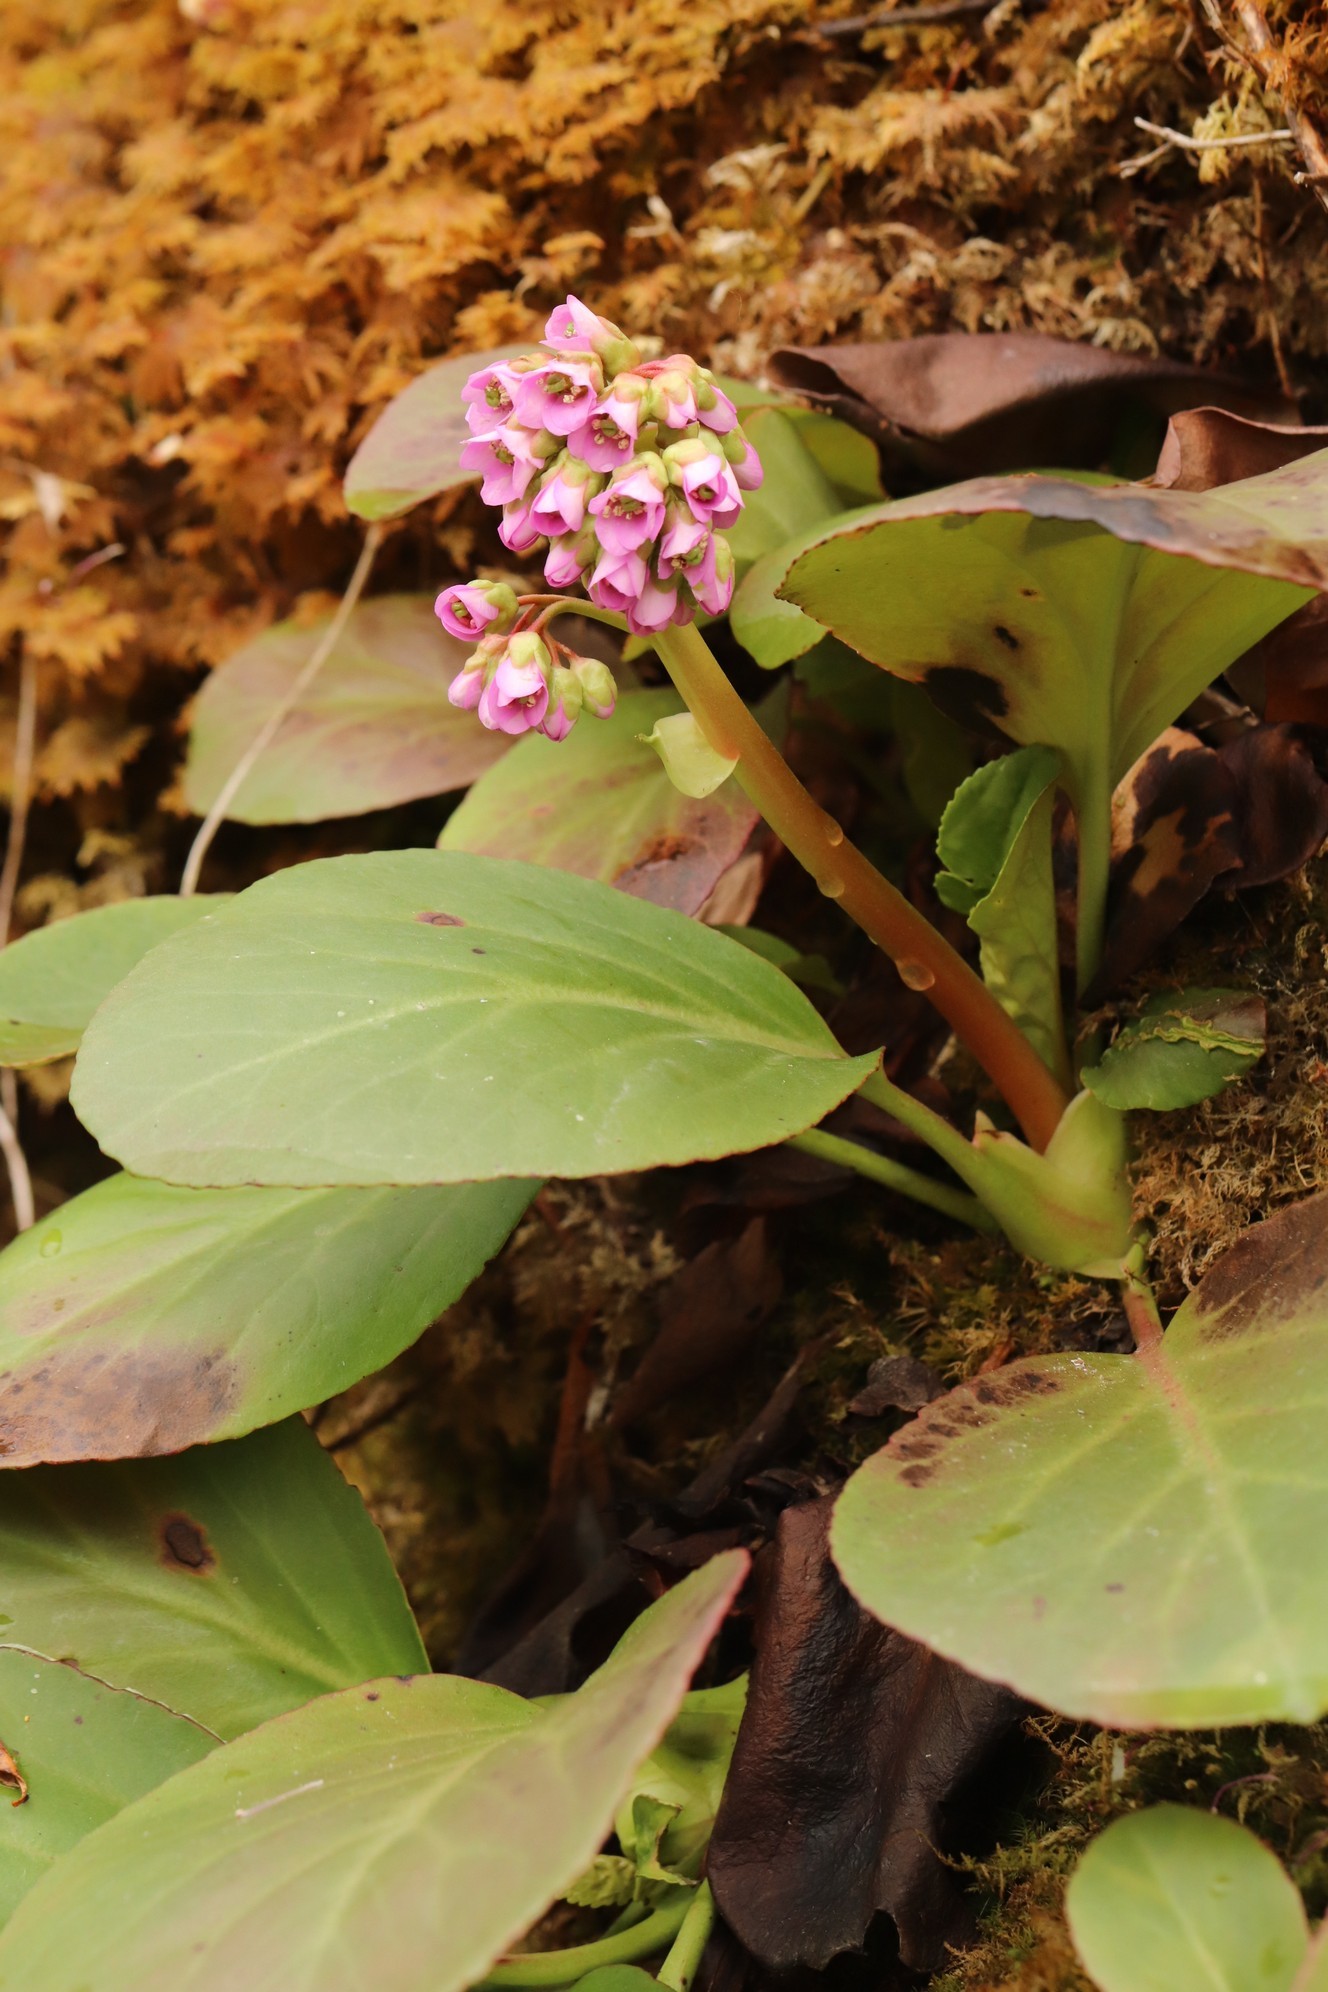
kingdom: Plantae
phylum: Tracheophyta
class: Magnoliopsida
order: Saxifragales
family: Saxifragaceae
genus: Bergenia
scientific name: Bergenia crassifolia
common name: Elephant-ears
